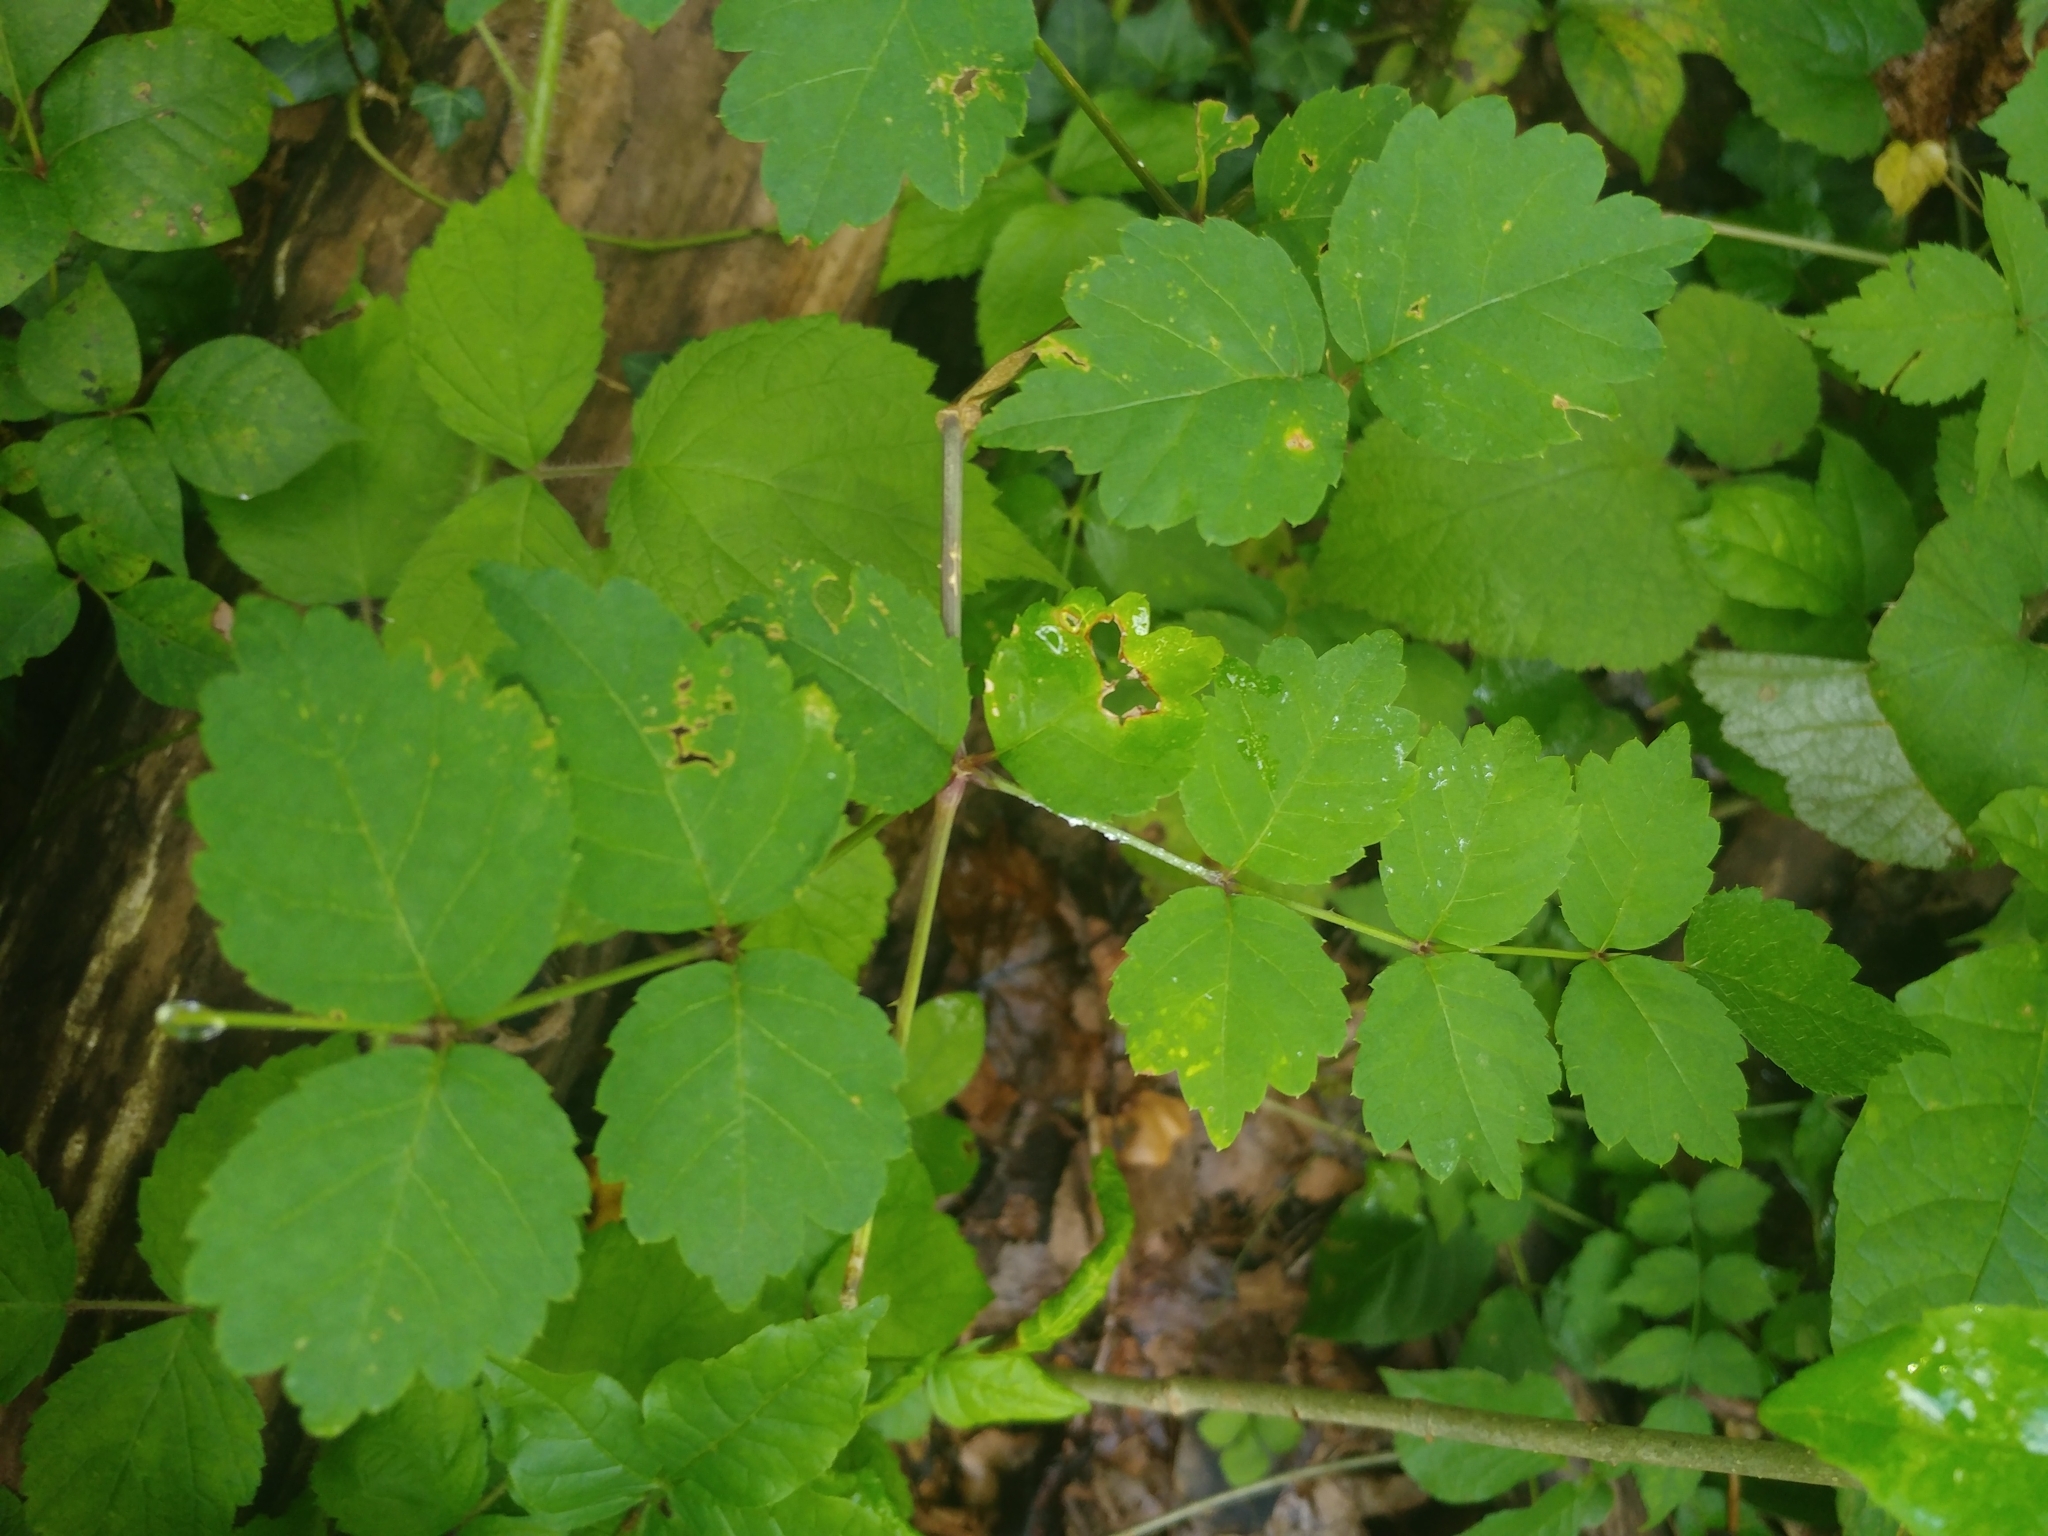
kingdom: Plantae
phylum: Tracheophyta
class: Magnoliopsida
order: Apiales
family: Araliaceae
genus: Aralia
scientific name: Aralia elata
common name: Japanese angelica-tree
